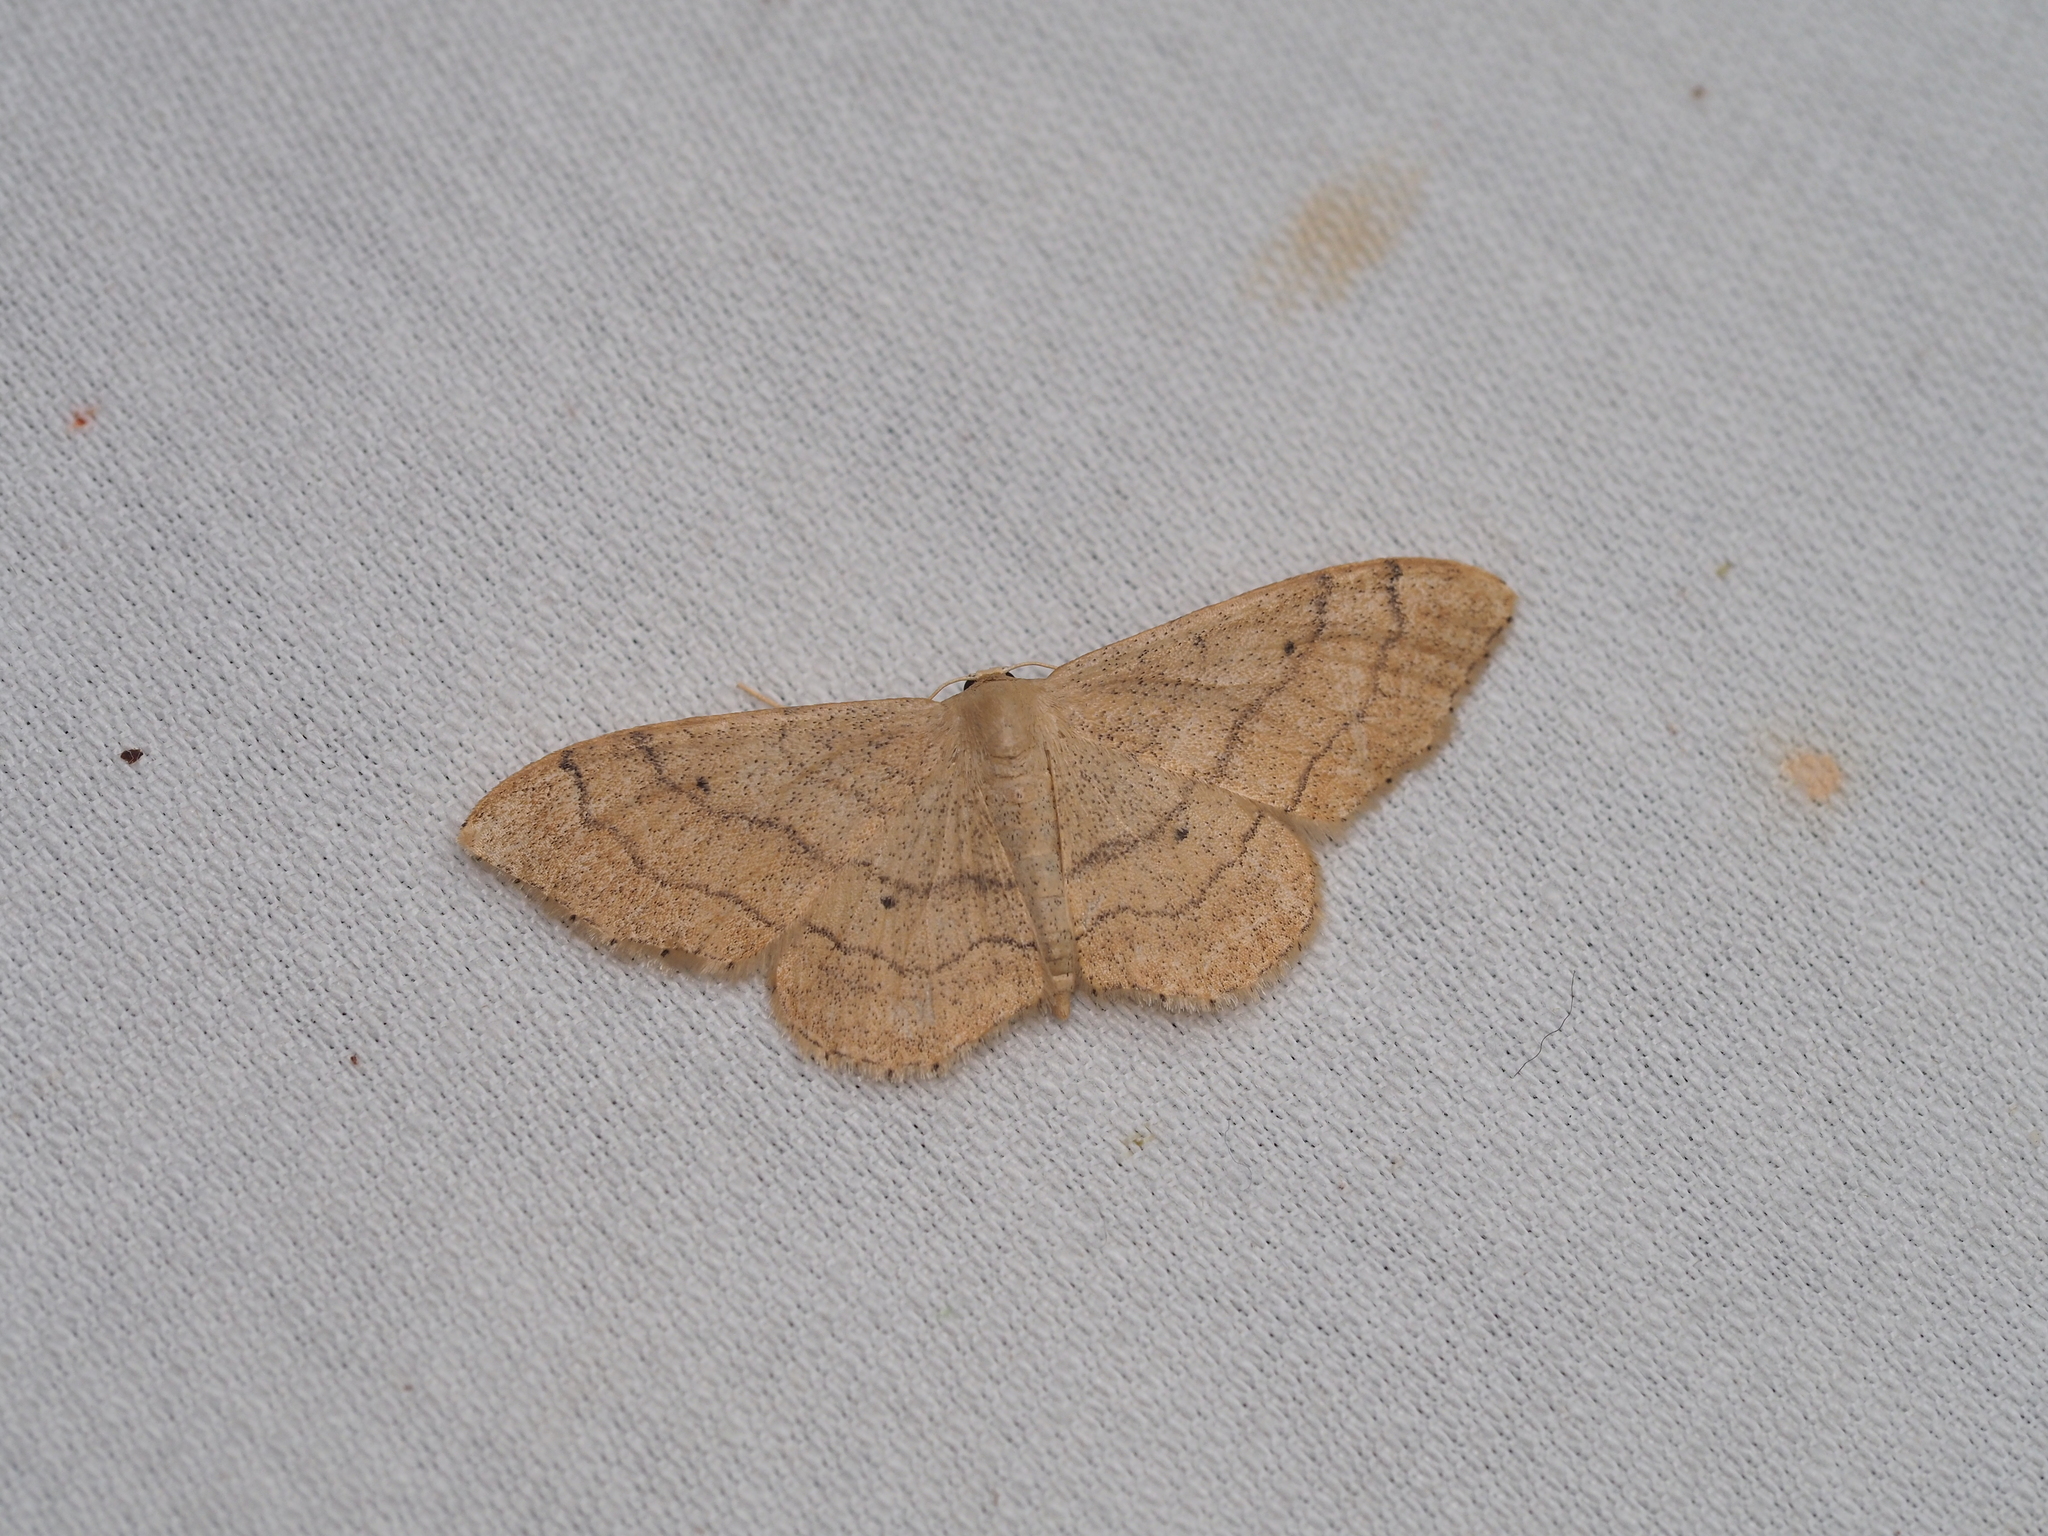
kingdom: Animalia
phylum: Arthropoda
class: Insecta
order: Lepidoptera
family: Geometridae
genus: Idaea
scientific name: Idaea aversata
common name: Riband wave
